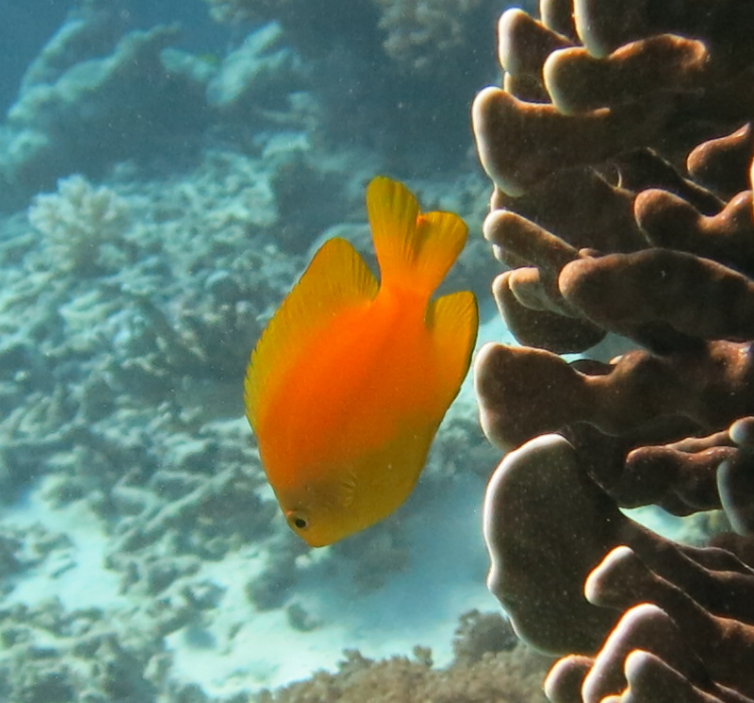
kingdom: Animalia
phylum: Chordata
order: Perciformes
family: Pomacentridae
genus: Pomacentrus
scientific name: Pomacentrus moluccensis
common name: Lemon damsel
